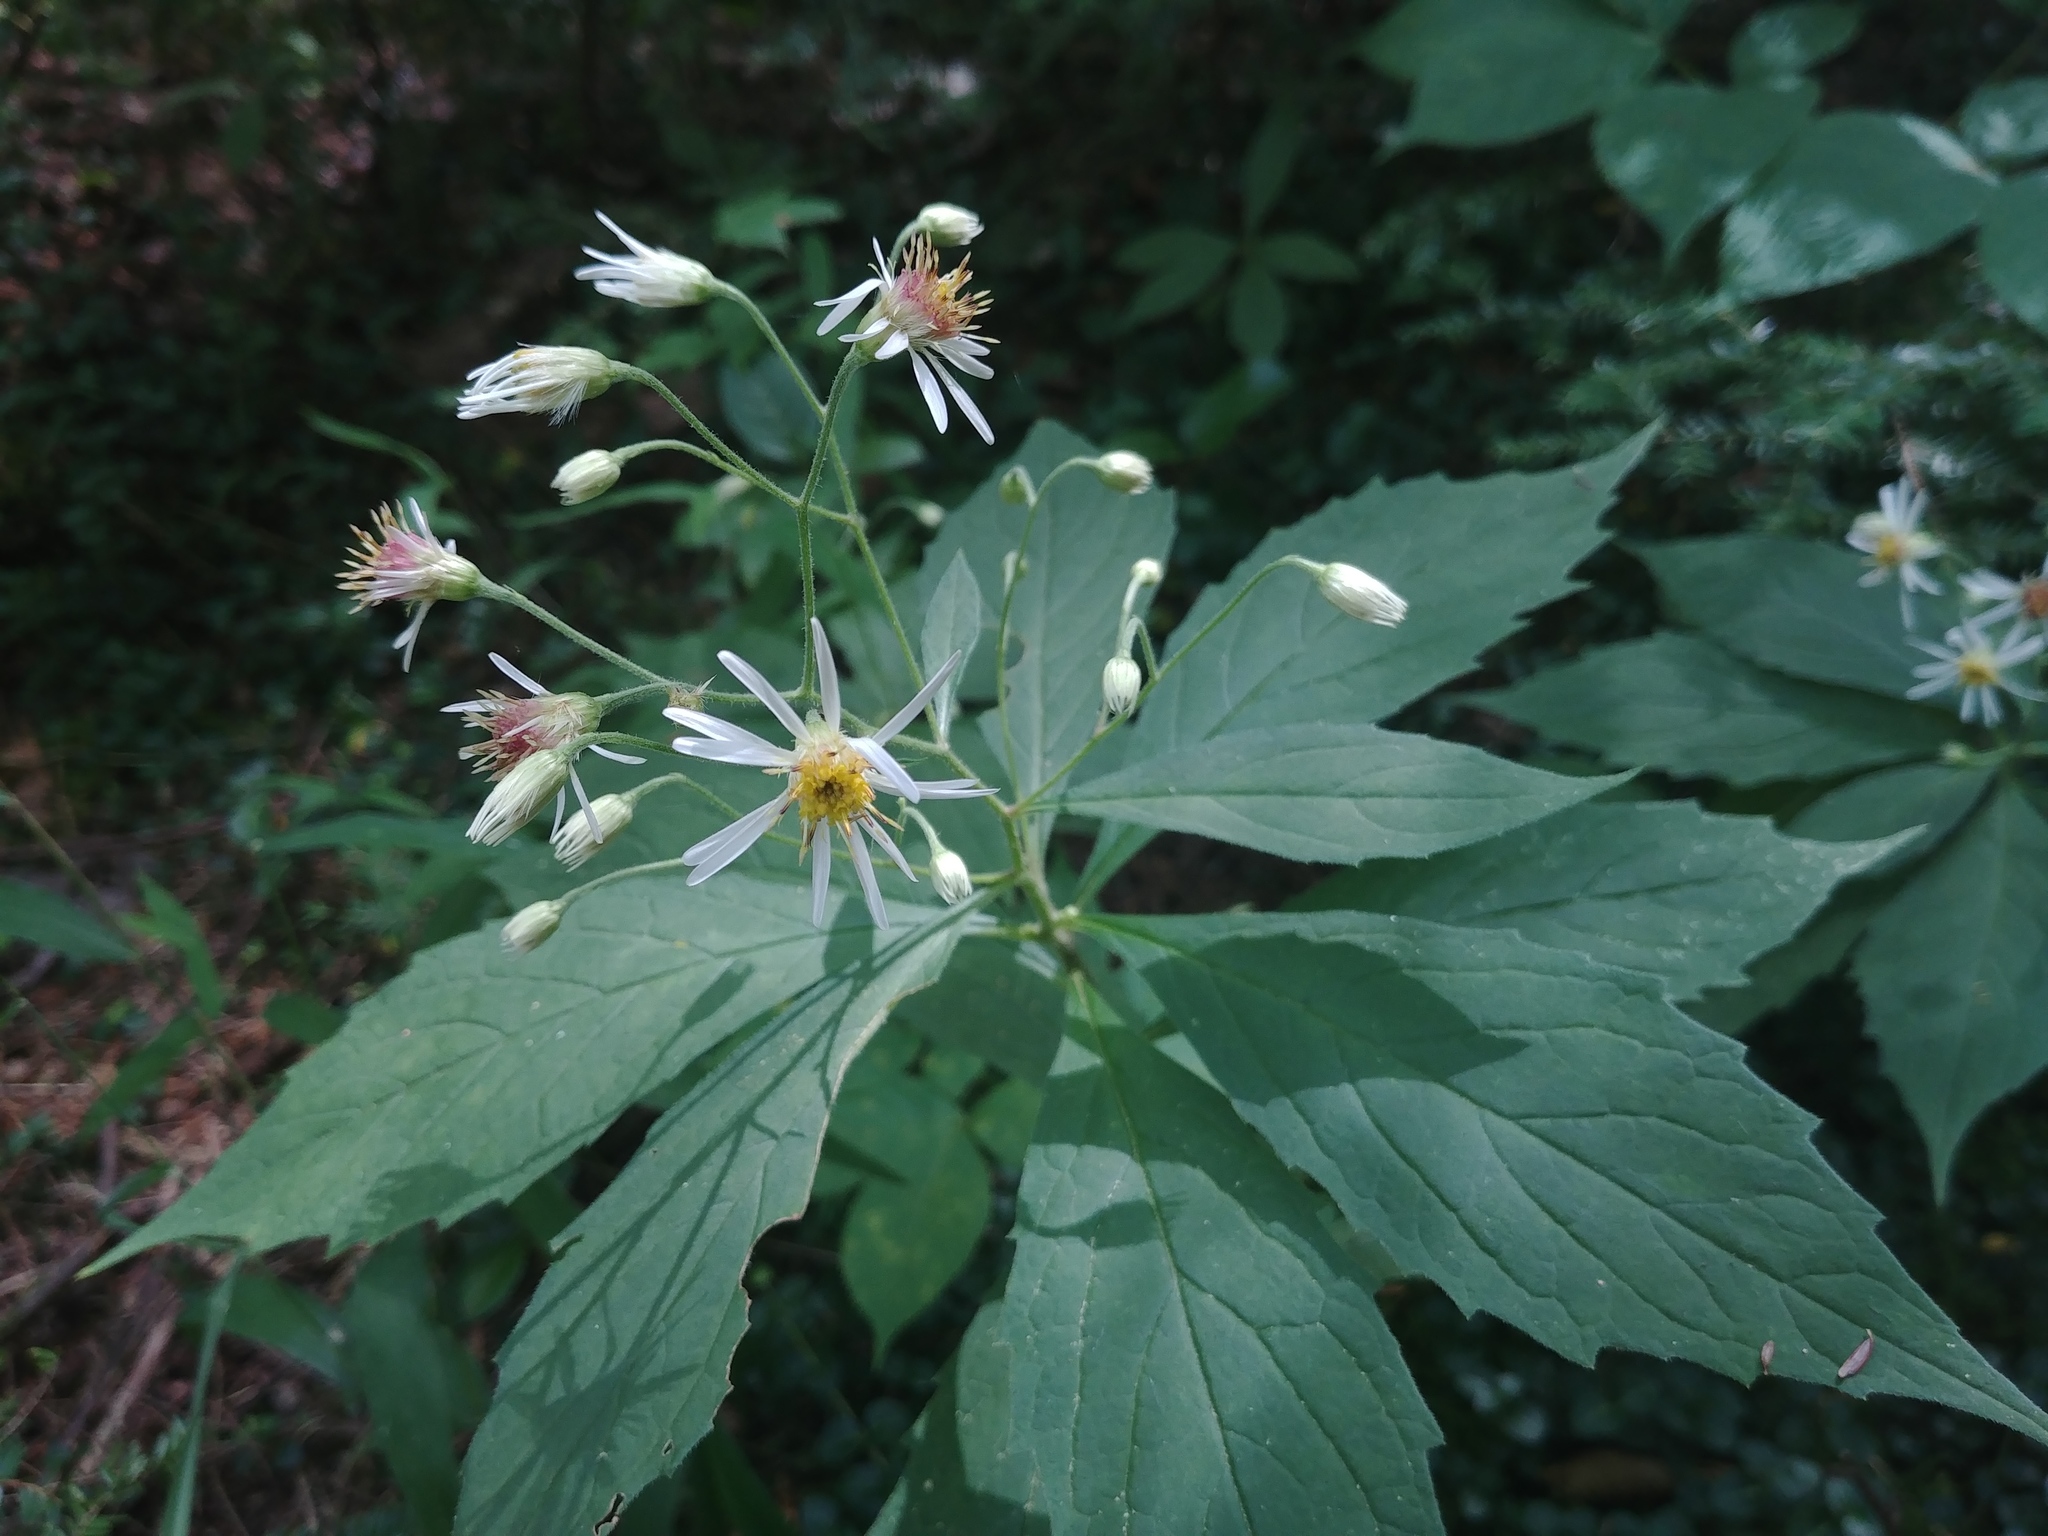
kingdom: Plantae
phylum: Tracheophyta
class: Magnoliopsida
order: Asterales
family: Asteraceae
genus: Oclemena
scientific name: Oclemena acuminata
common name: Mountain aster
